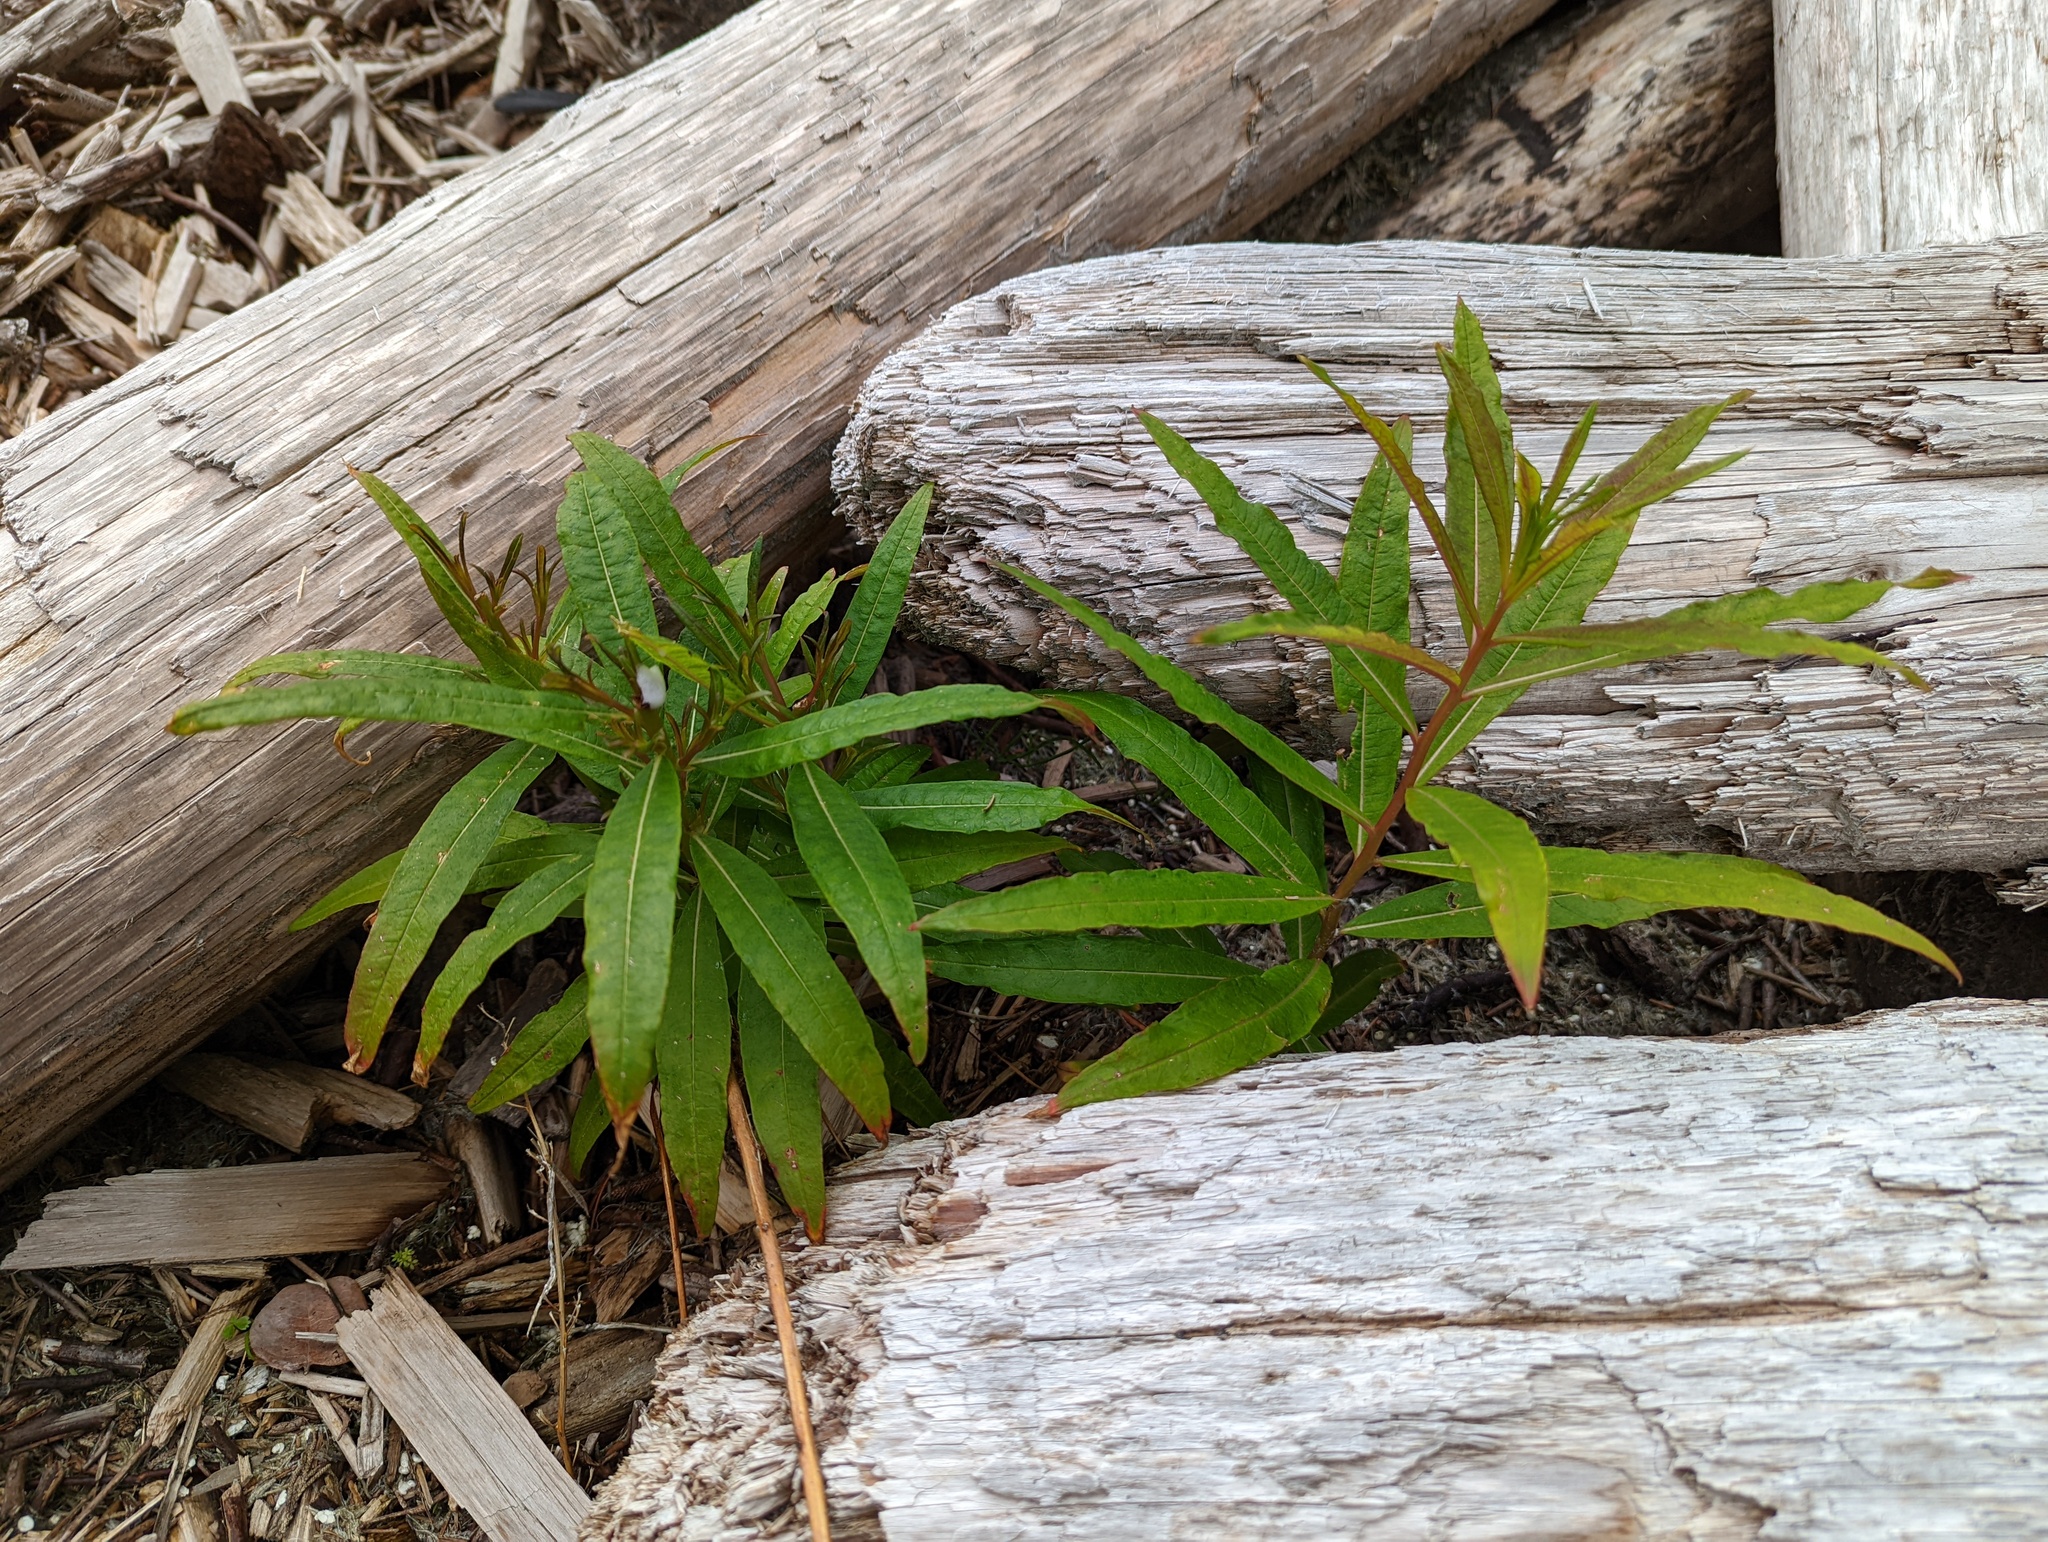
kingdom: Plantae
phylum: Tracheophyta
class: Magnoliopsida
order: Myrtales
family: Onagraceae
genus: Chamaenerion
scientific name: Chamaenerion angustifolium
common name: Fireweed
